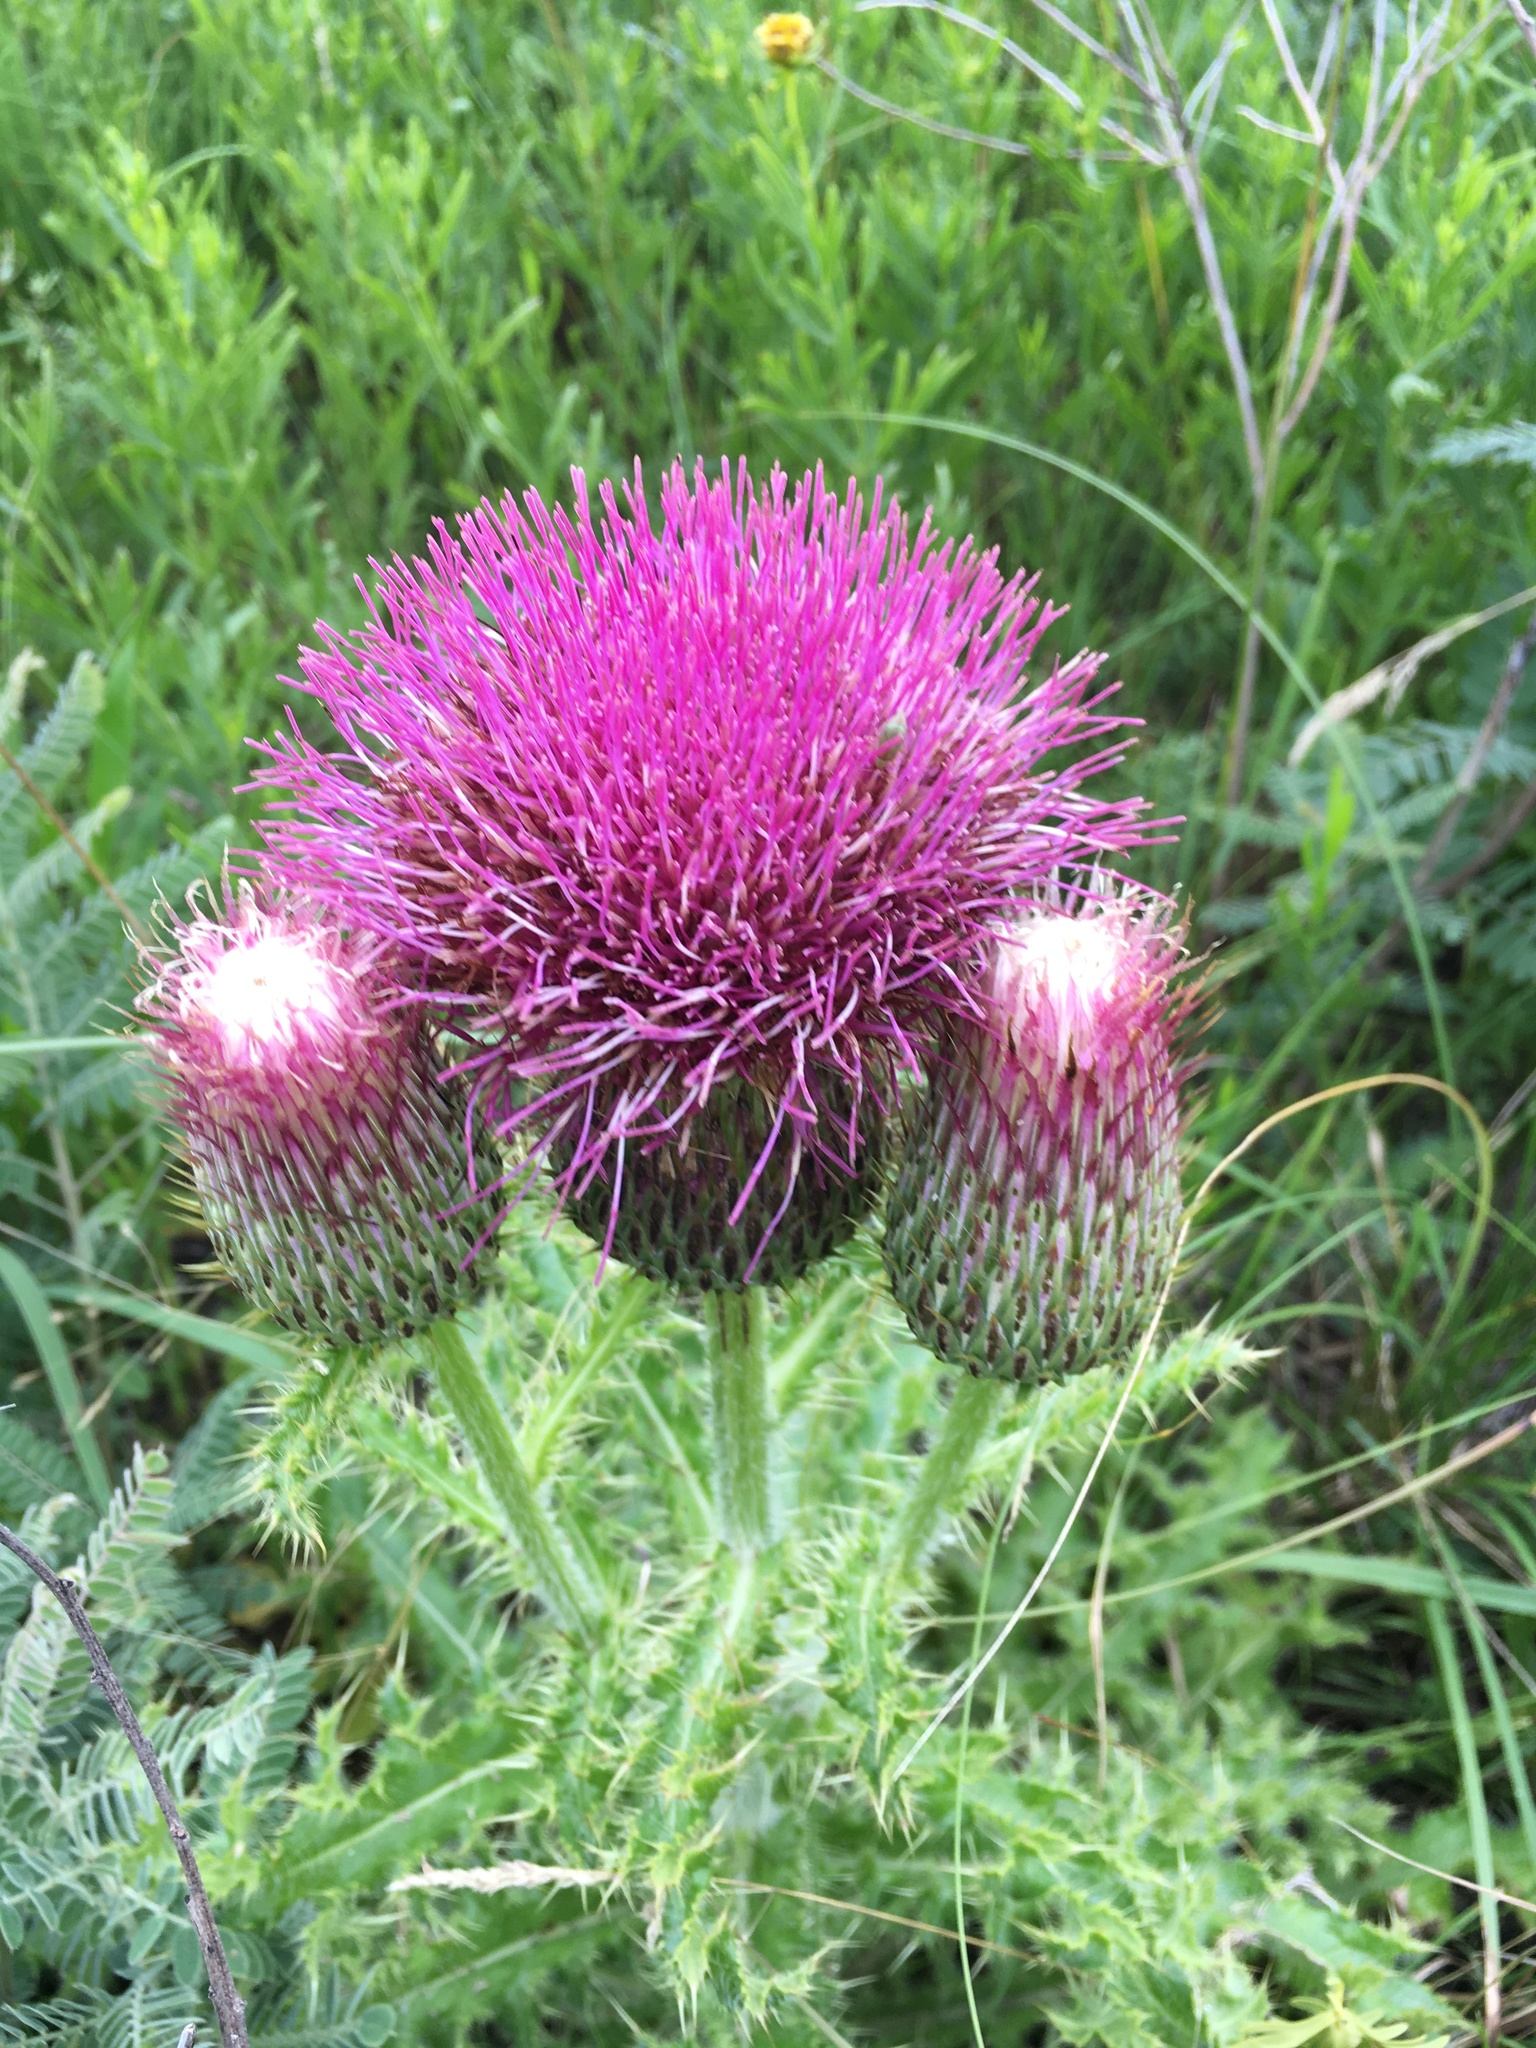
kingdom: Plantae
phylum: Tracheophyta
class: Magnoliopsida
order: Asterales
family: Asteraceae
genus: Cirsium
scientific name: Cirsium pumilum
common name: Pasture thistle
